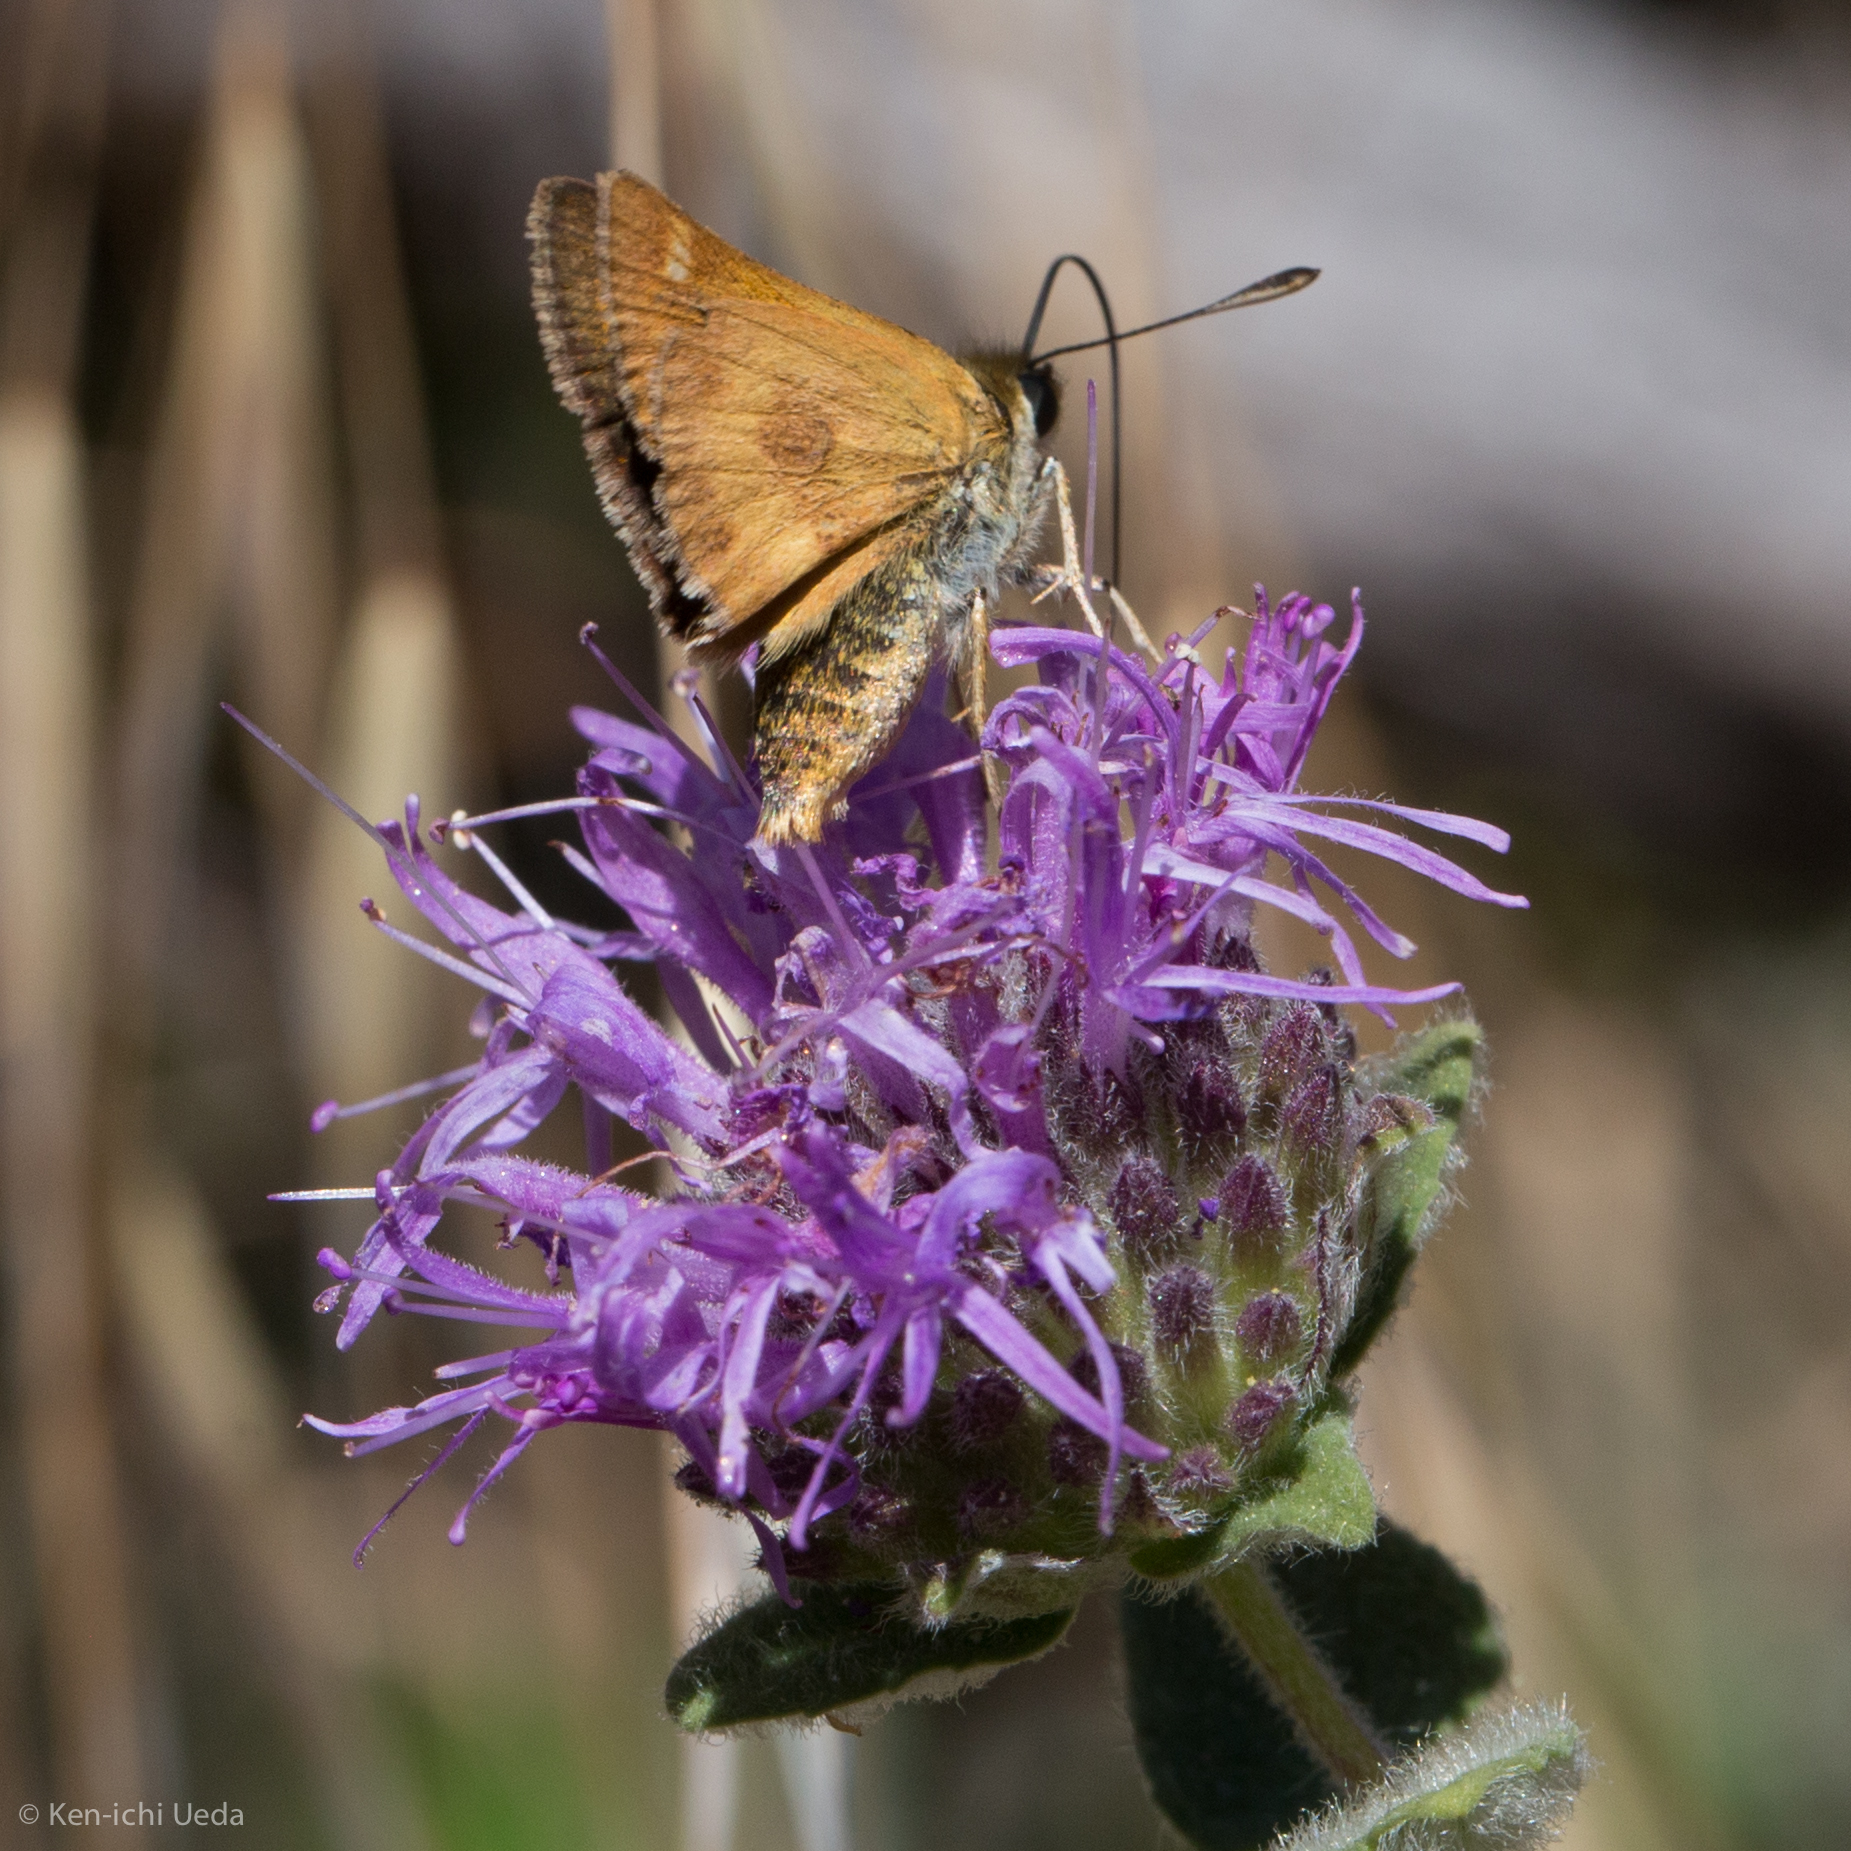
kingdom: Animalia
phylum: Arthropoda
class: Insecta
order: Lepidoptera
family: Hesperiidae
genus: Ochlodes
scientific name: Ochlodes agricola
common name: Rural skipper
